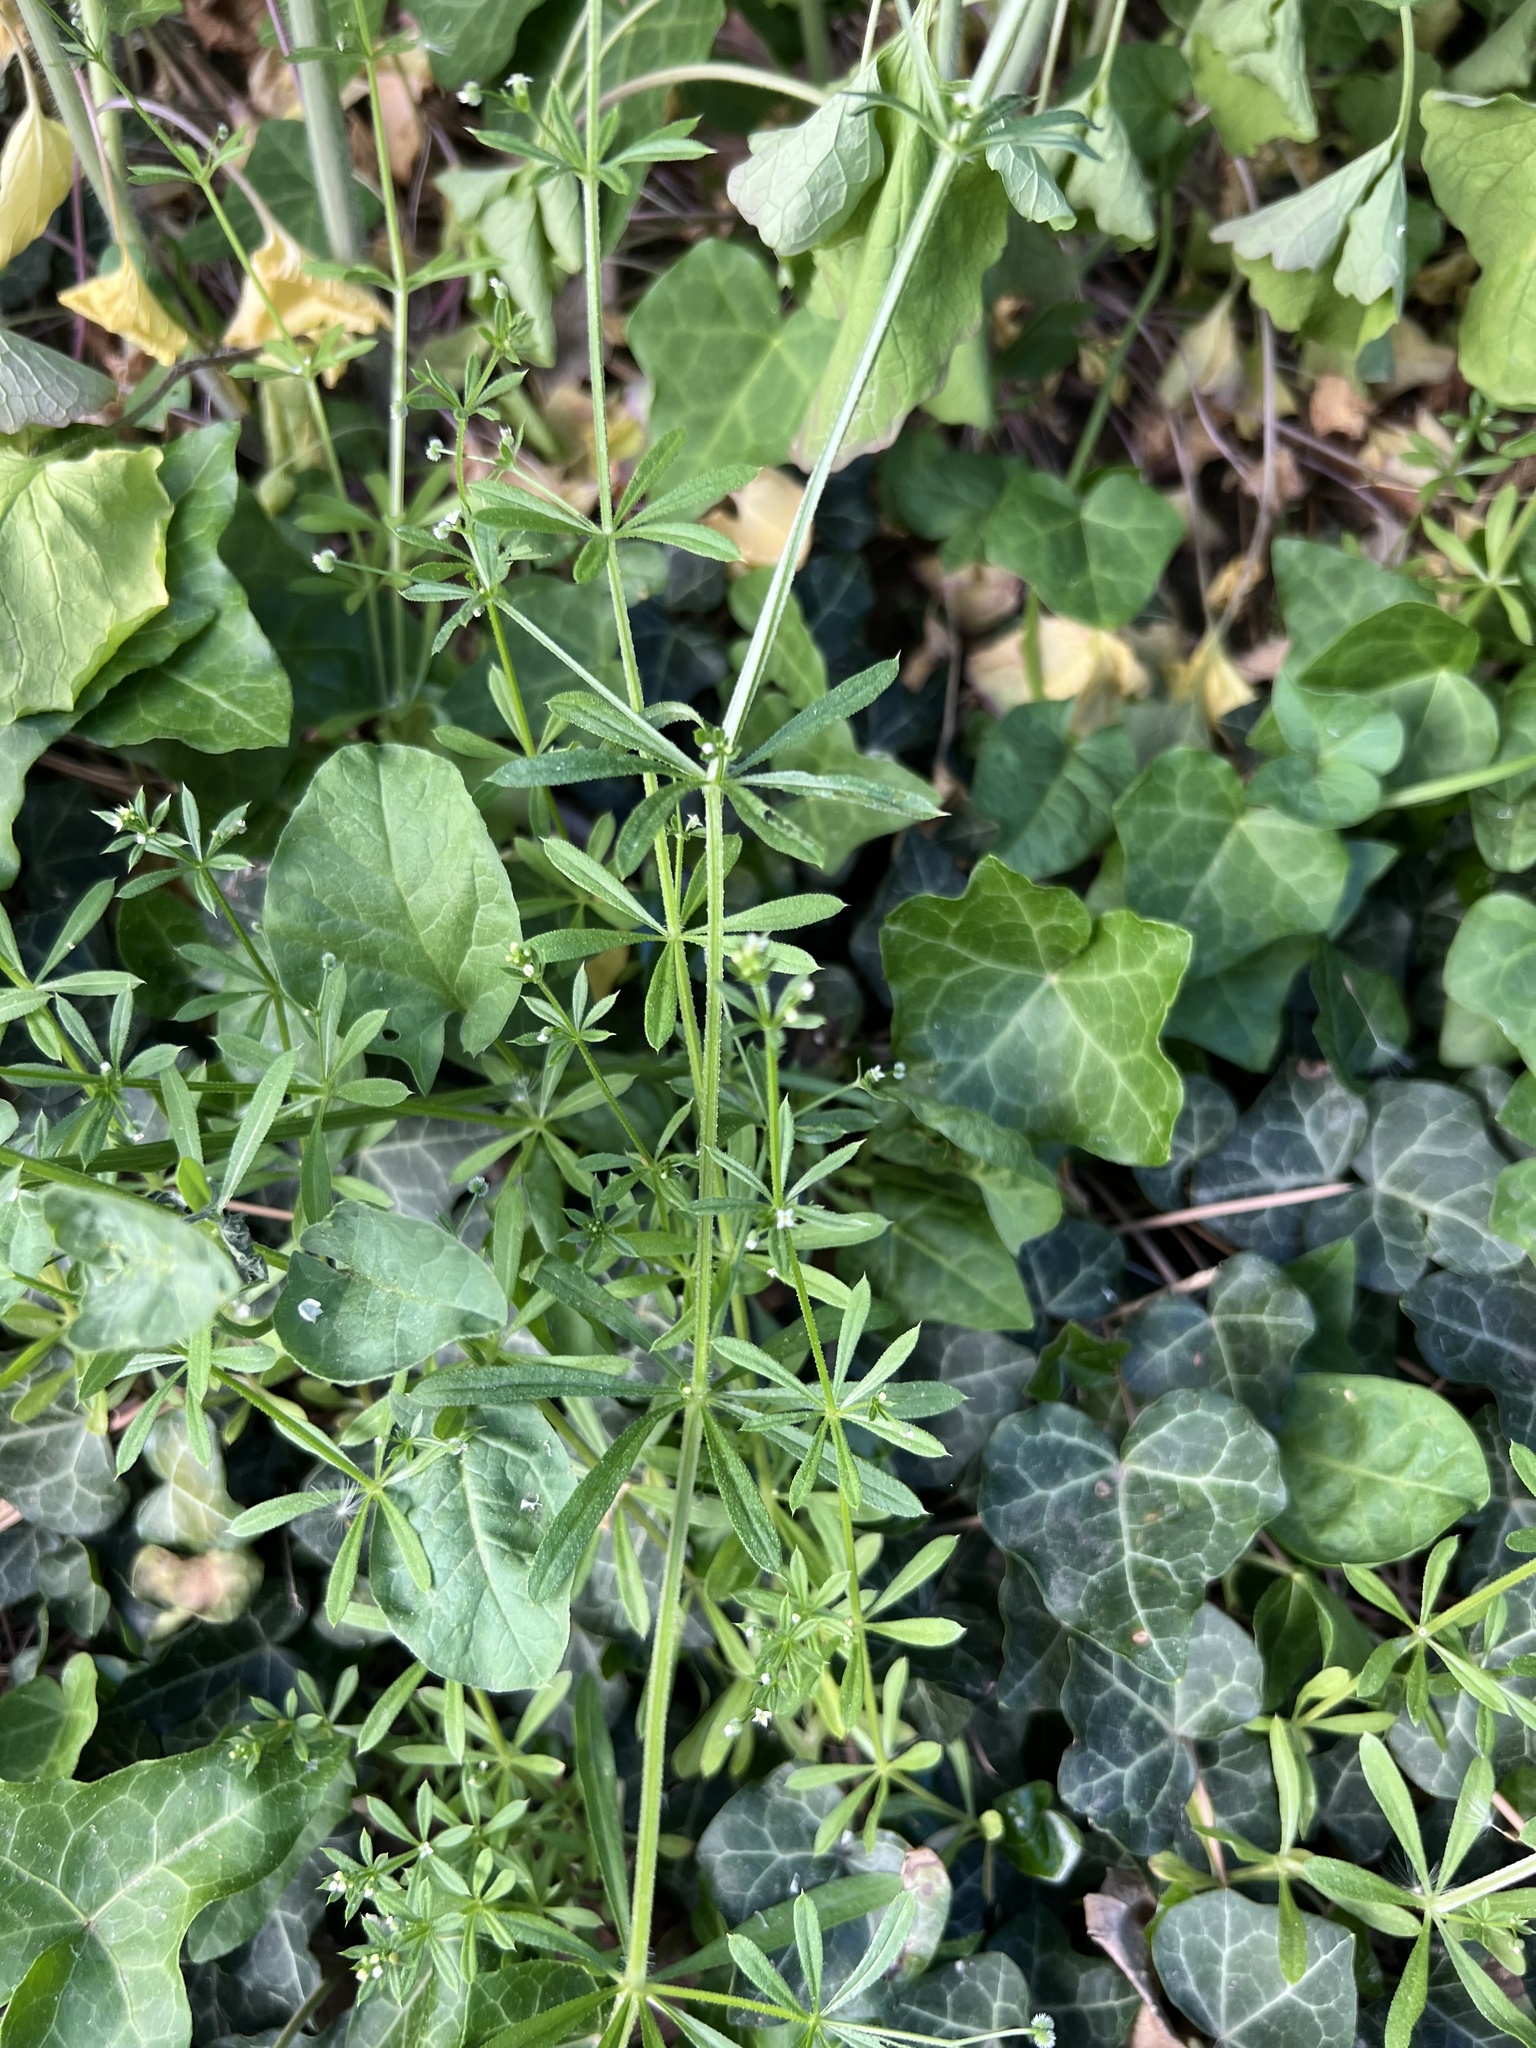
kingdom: Plantae
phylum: Tracheophyta
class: Magnoliopsida
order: Gentianales
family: Rubiaceae
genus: Galium
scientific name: Galium aparine
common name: Cleavers
